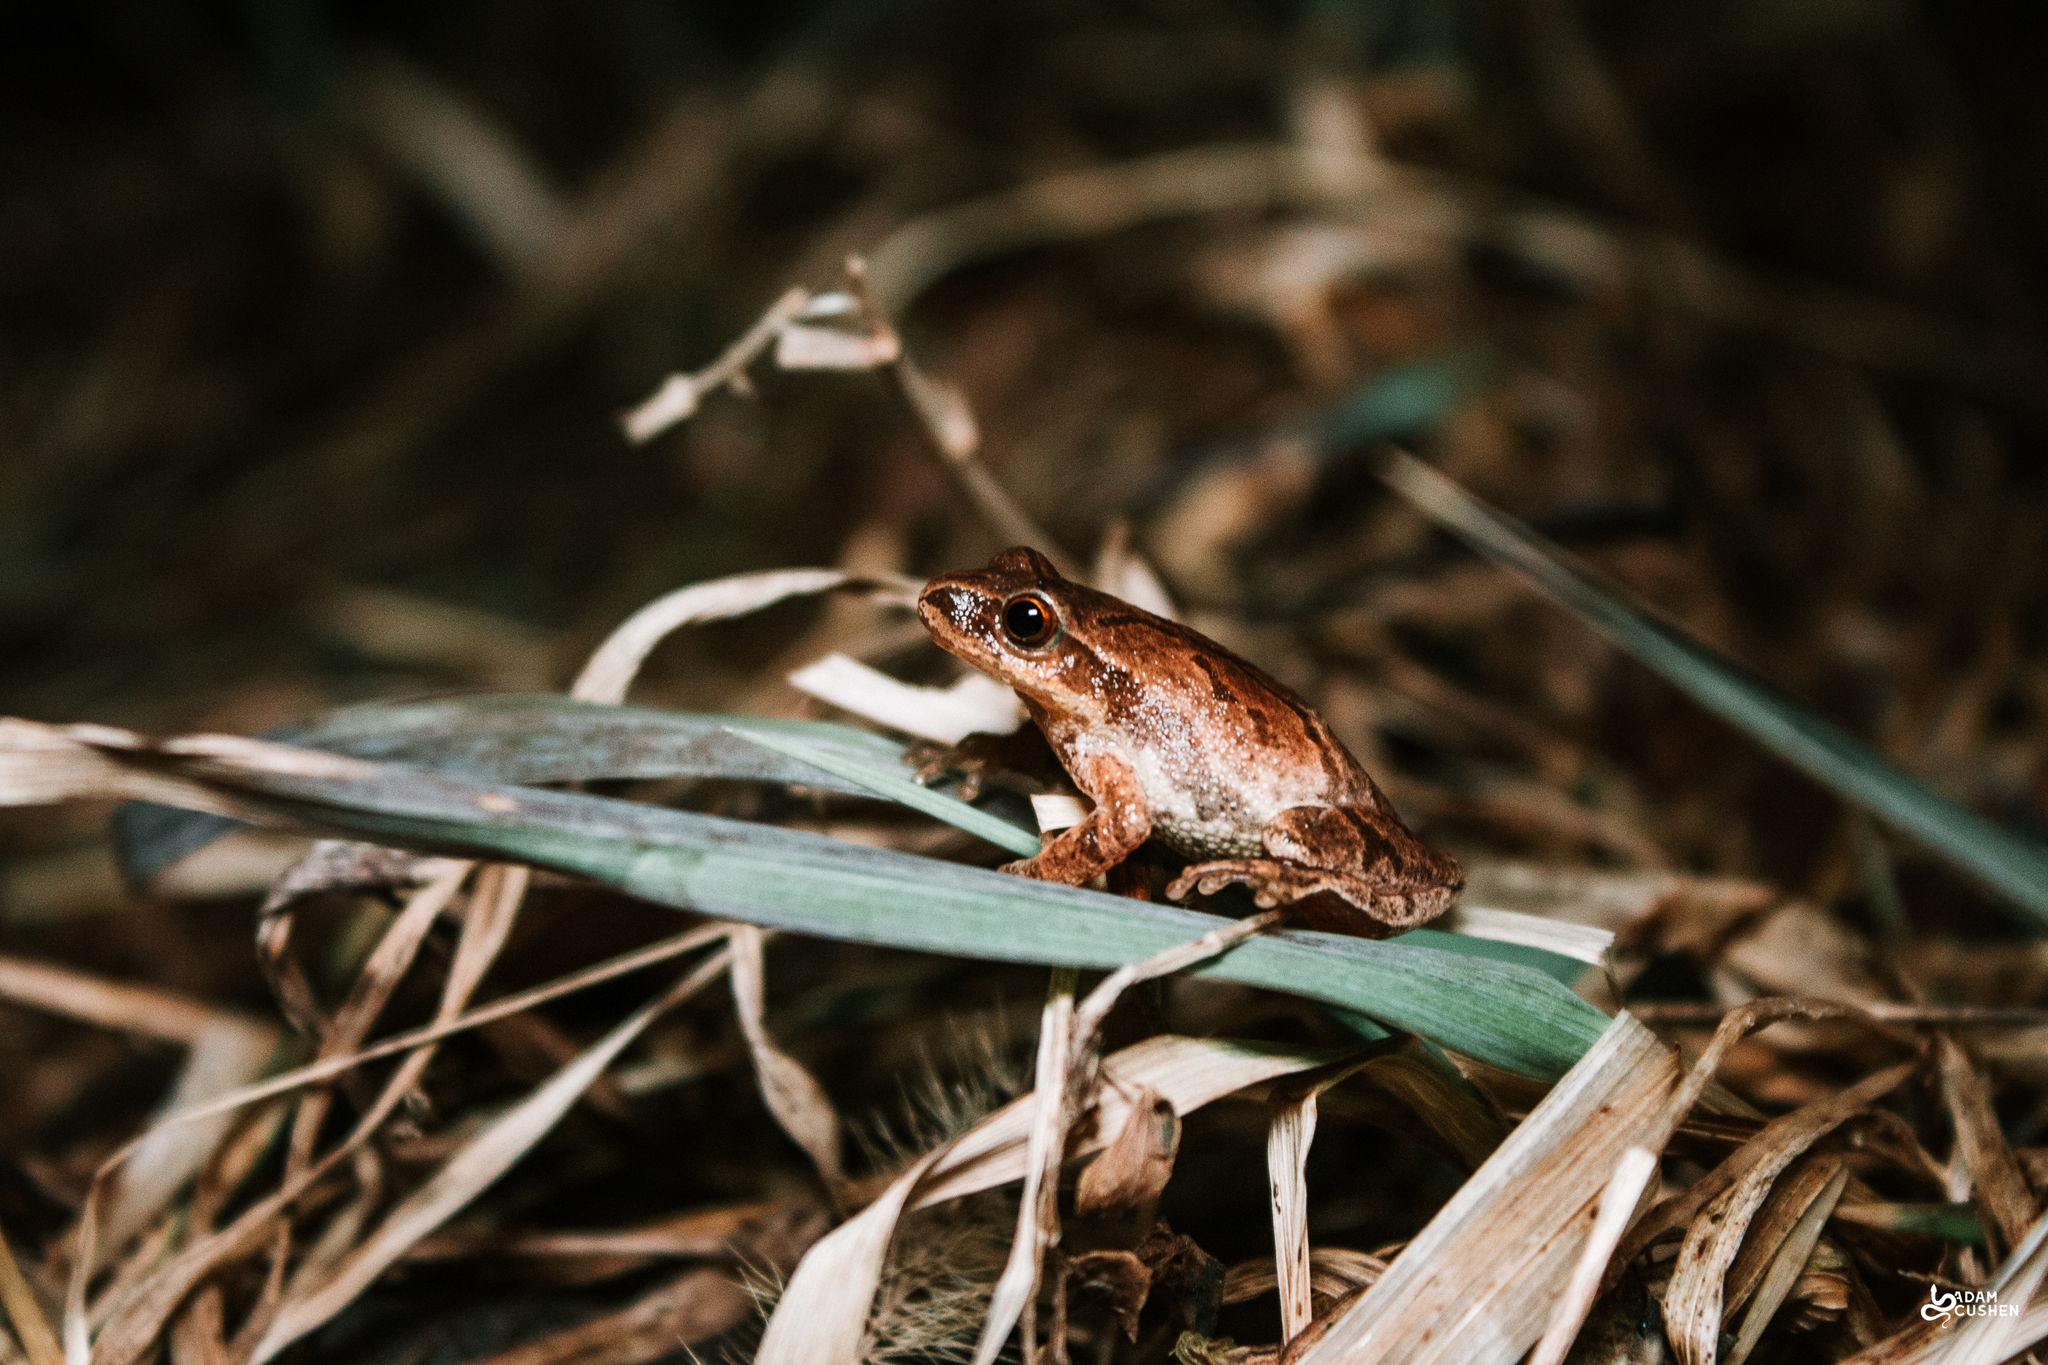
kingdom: Animalia
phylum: Chordata
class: Amphibia
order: Anura
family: Hylidae
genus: Pseudacris
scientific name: Pseudacris crucifer
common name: Spring peeper
